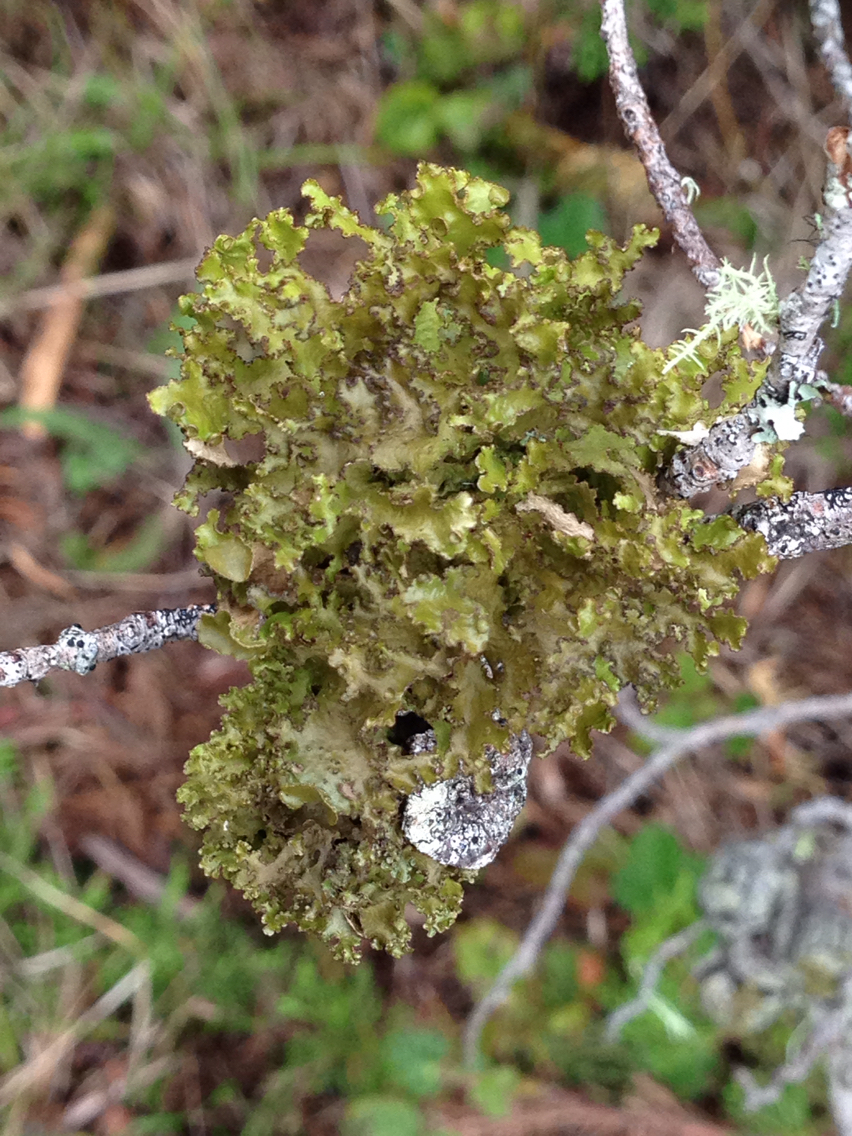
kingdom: Fungi
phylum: Ascomycota
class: Lecanoromycetes
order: Lecanorales
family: Parmeliaceae
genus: Nephromopsis
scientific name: Nephromopsis orbata
